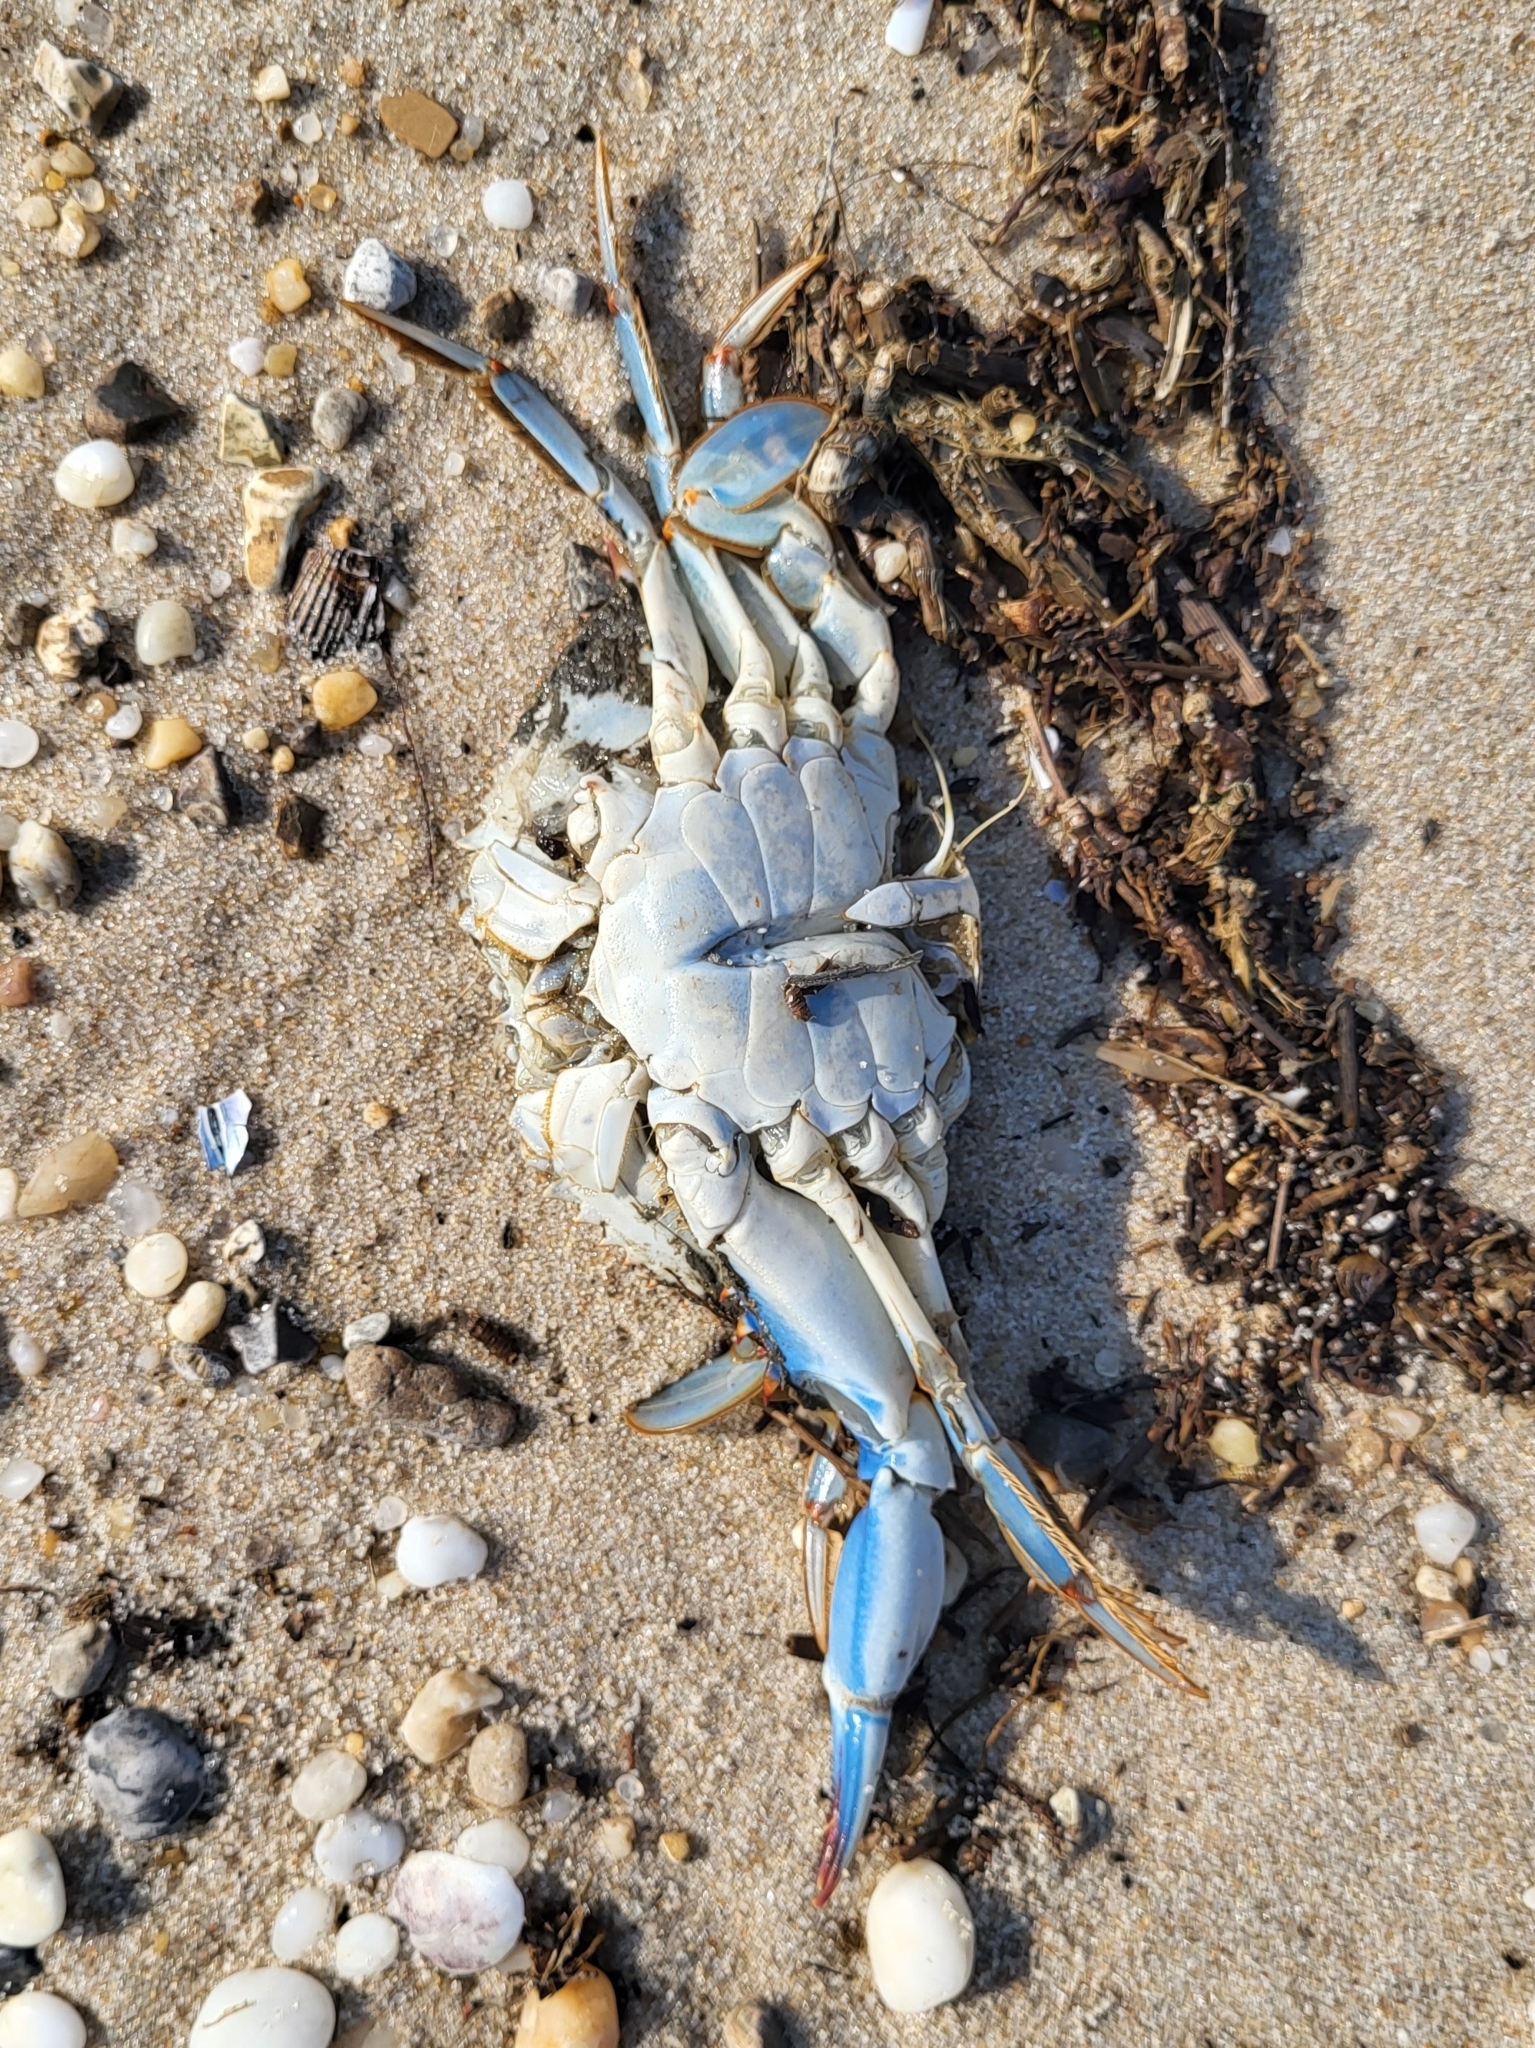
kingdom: Animalia
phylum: Arthropoda
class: Malacostraca
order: Decapoda
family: Portunidae
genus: Callinectes
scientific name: Callinectes sapidus
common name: Blue crab
